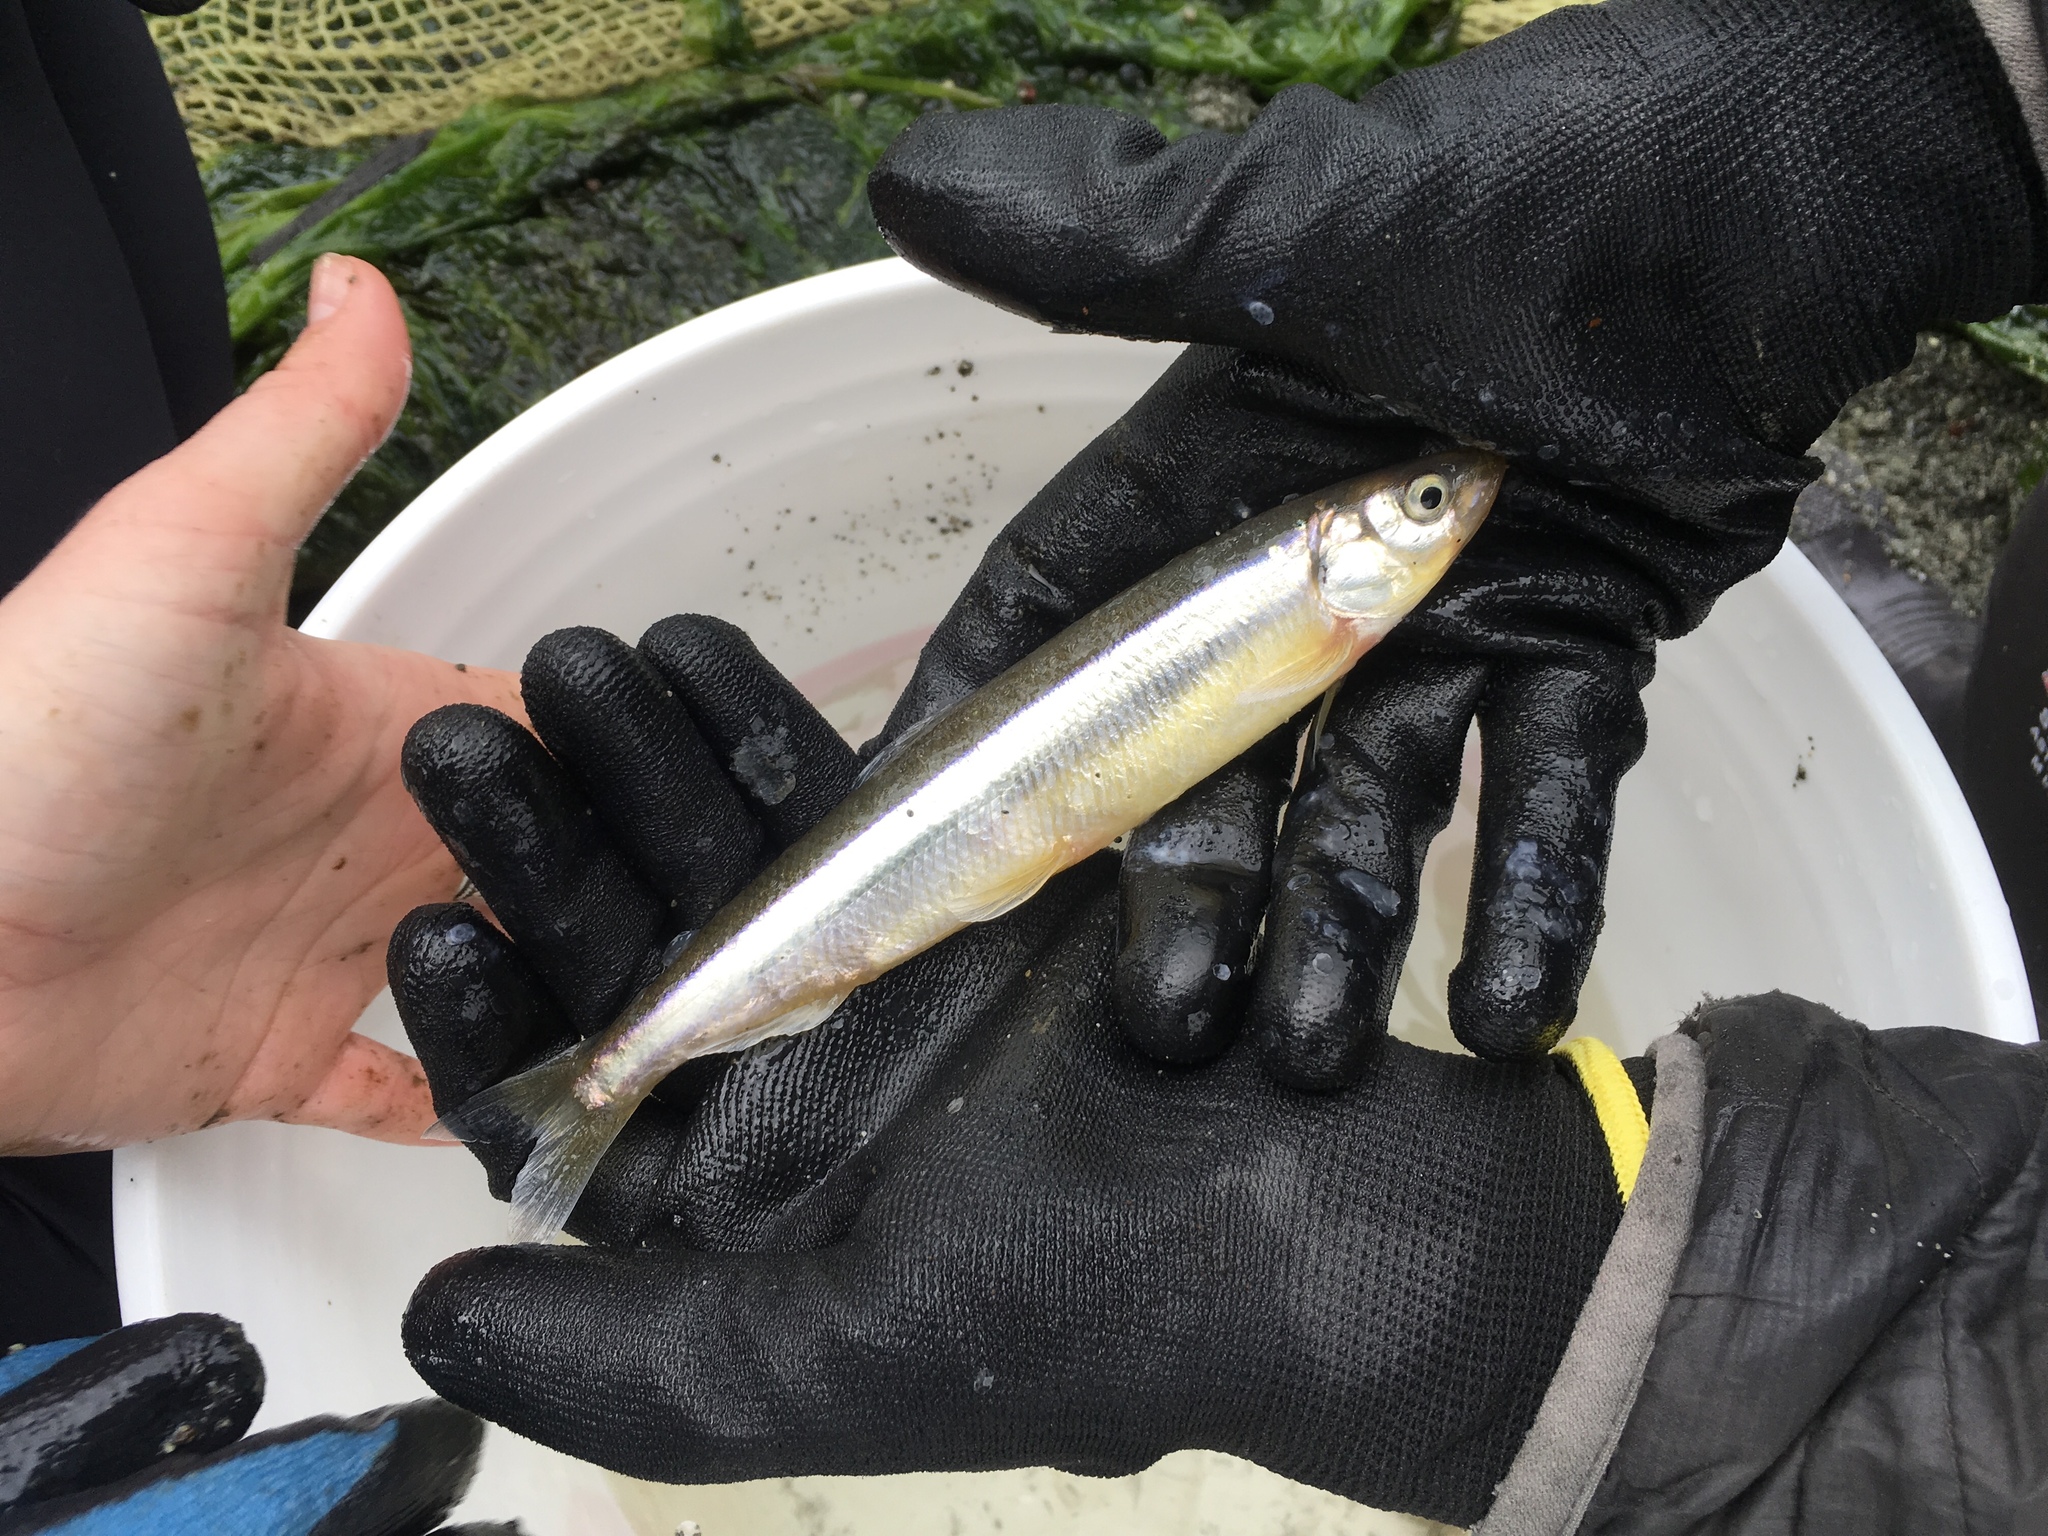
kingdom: Animalia
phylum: Chordata
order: Osmeriformes
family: Osmeridae
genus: Hypomesus
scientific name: Hypomesus pretiosus
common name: Surf smelt
